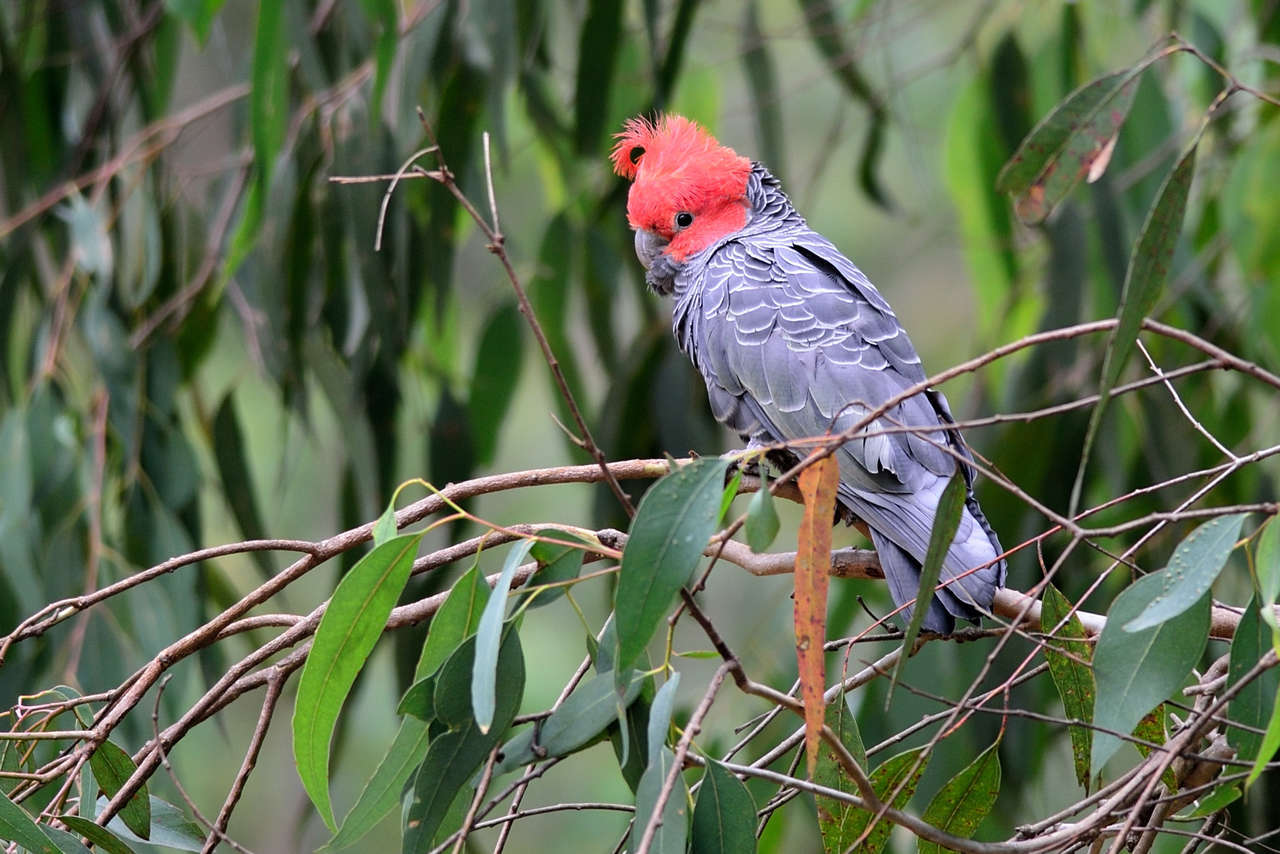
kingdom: Animalia
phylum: Chordata
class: Aves
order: Psittaciformes
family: Psittacidae
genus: Callocephalon
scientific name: Callocephalon fimbriatum
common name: Gang-gang cockatoo
